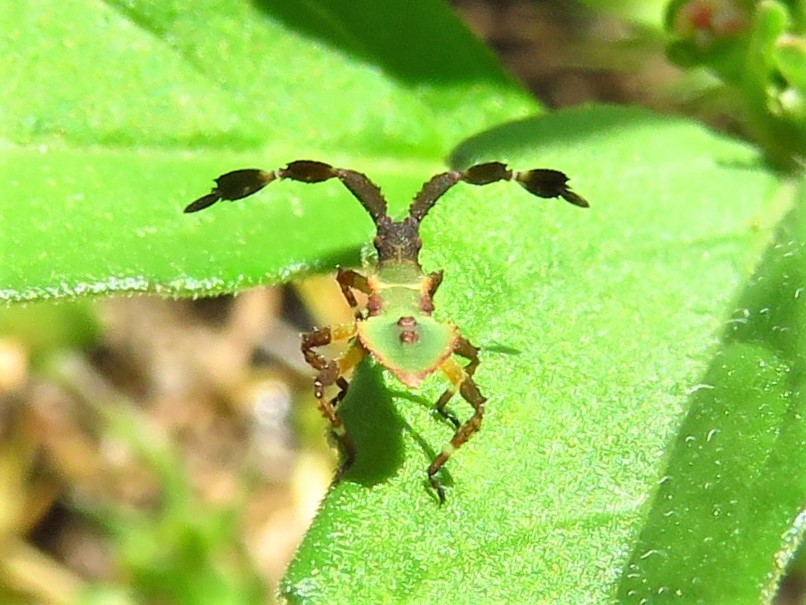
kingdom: Animalia
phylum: Arthropoda
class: Insecta
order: Hemiptera
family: Coreidae
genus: Chariesterus
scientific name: Chariesterus antennator
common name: Flat horned coreid
